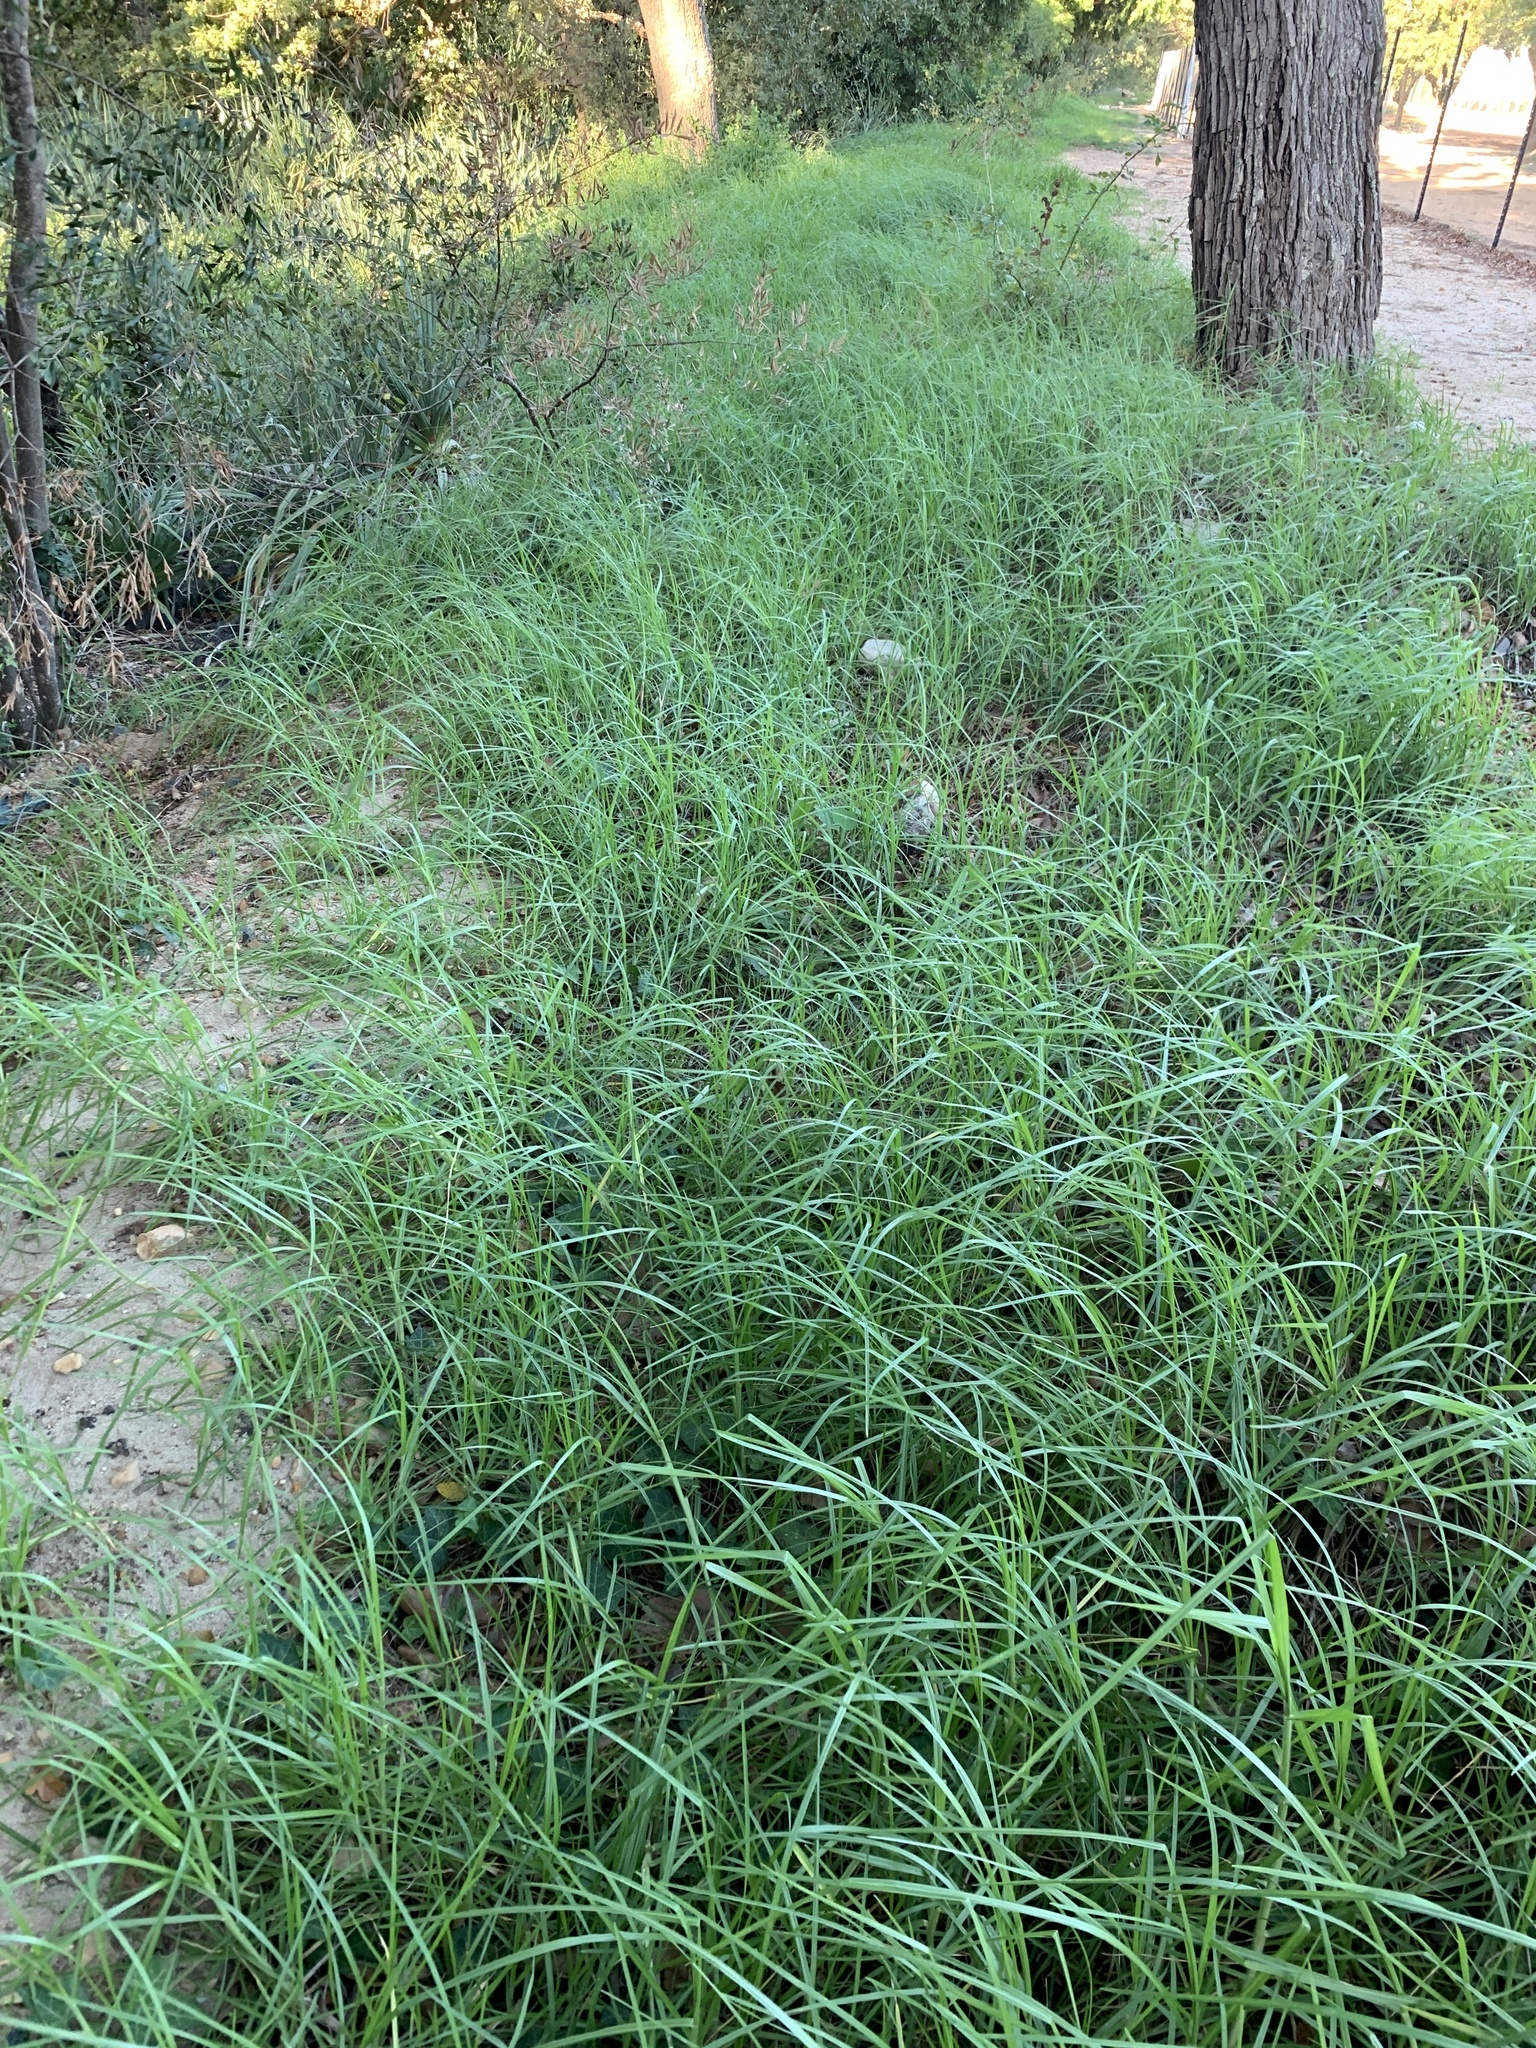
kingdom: Plantae
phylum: Tracheophyta
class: Liliopsida
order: Poales
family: Poaceae
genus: Cenchrus
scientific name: Cenchrus clandestinus
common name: Kikuyugrass
